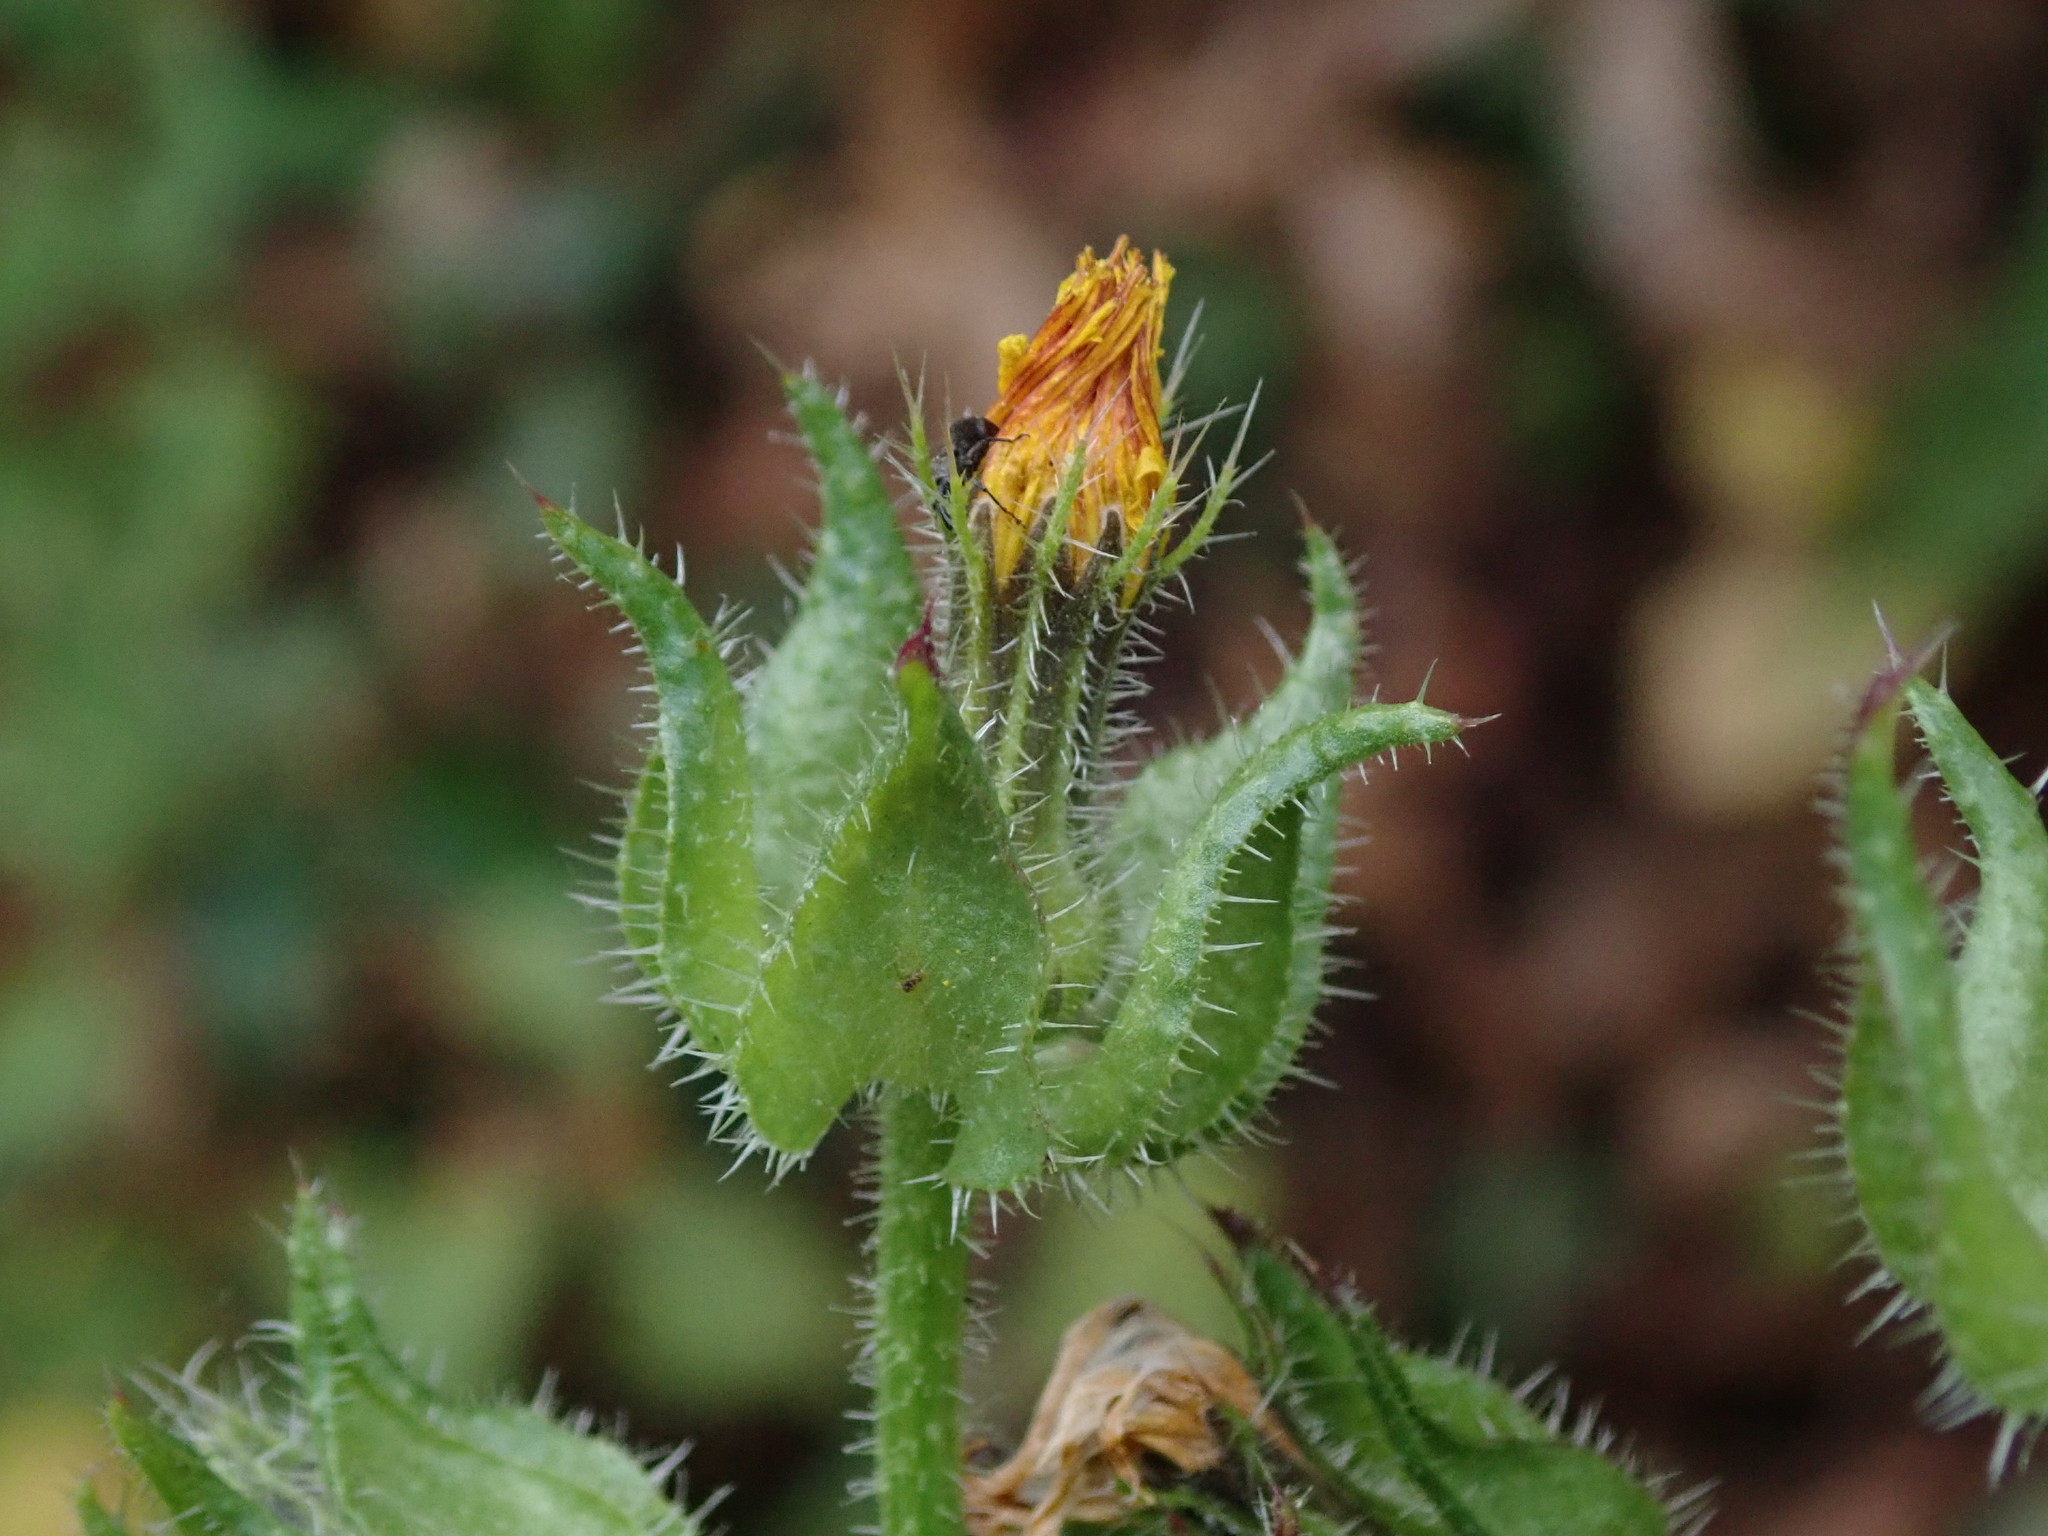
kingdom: Plantae
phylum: Tracheophyta
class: Magnoliopsida
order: Asterales
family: Asteraceae
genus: Helminthotheca
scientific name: Helminthotheca echioides
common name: Ox-tongue
